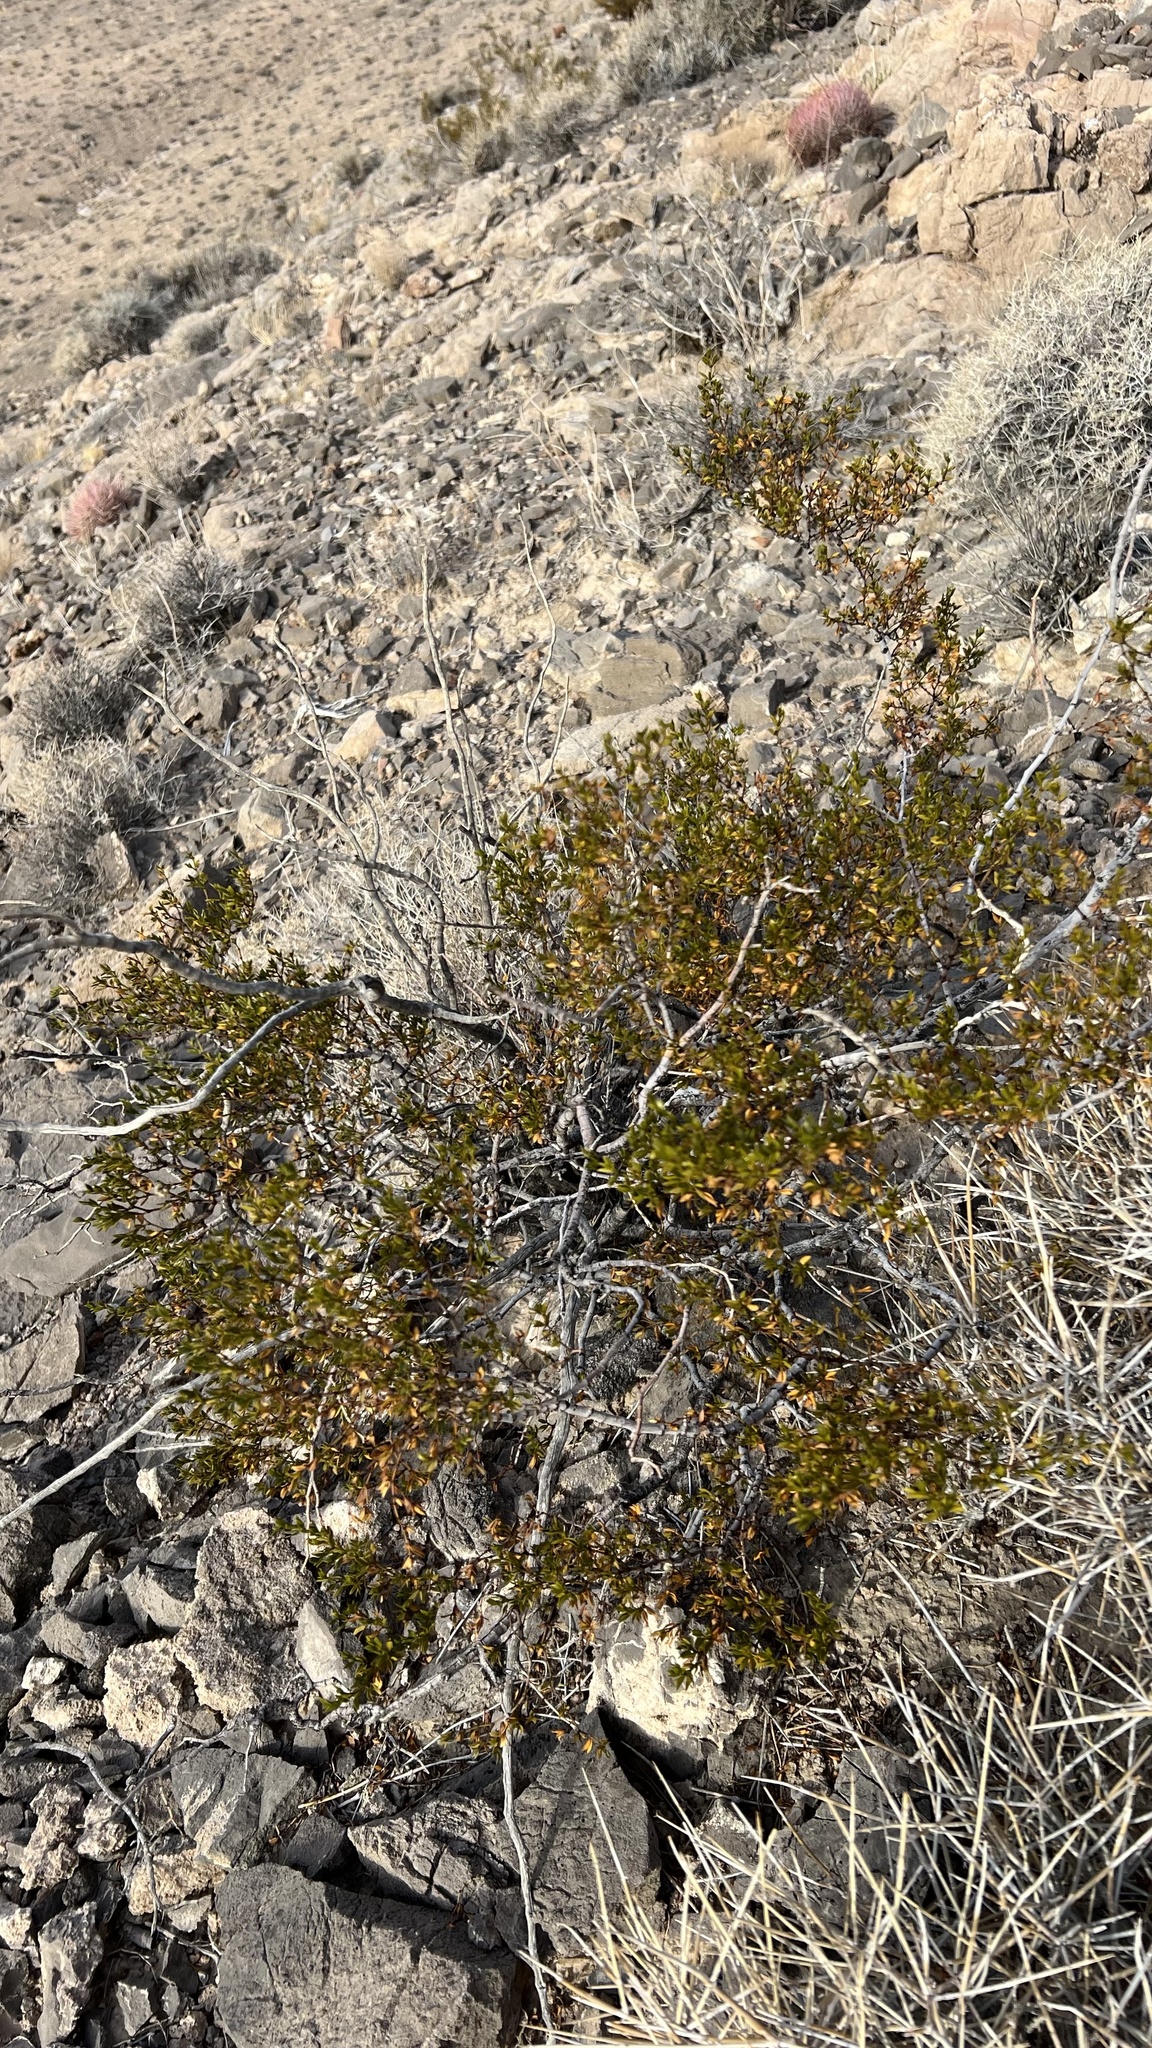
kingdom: Plantae
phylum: Tracheophyta
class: Magnoliopsida
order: Zygophyllales
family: Zygophyllaceae
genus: Larrea
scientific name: Larrea tridentata
